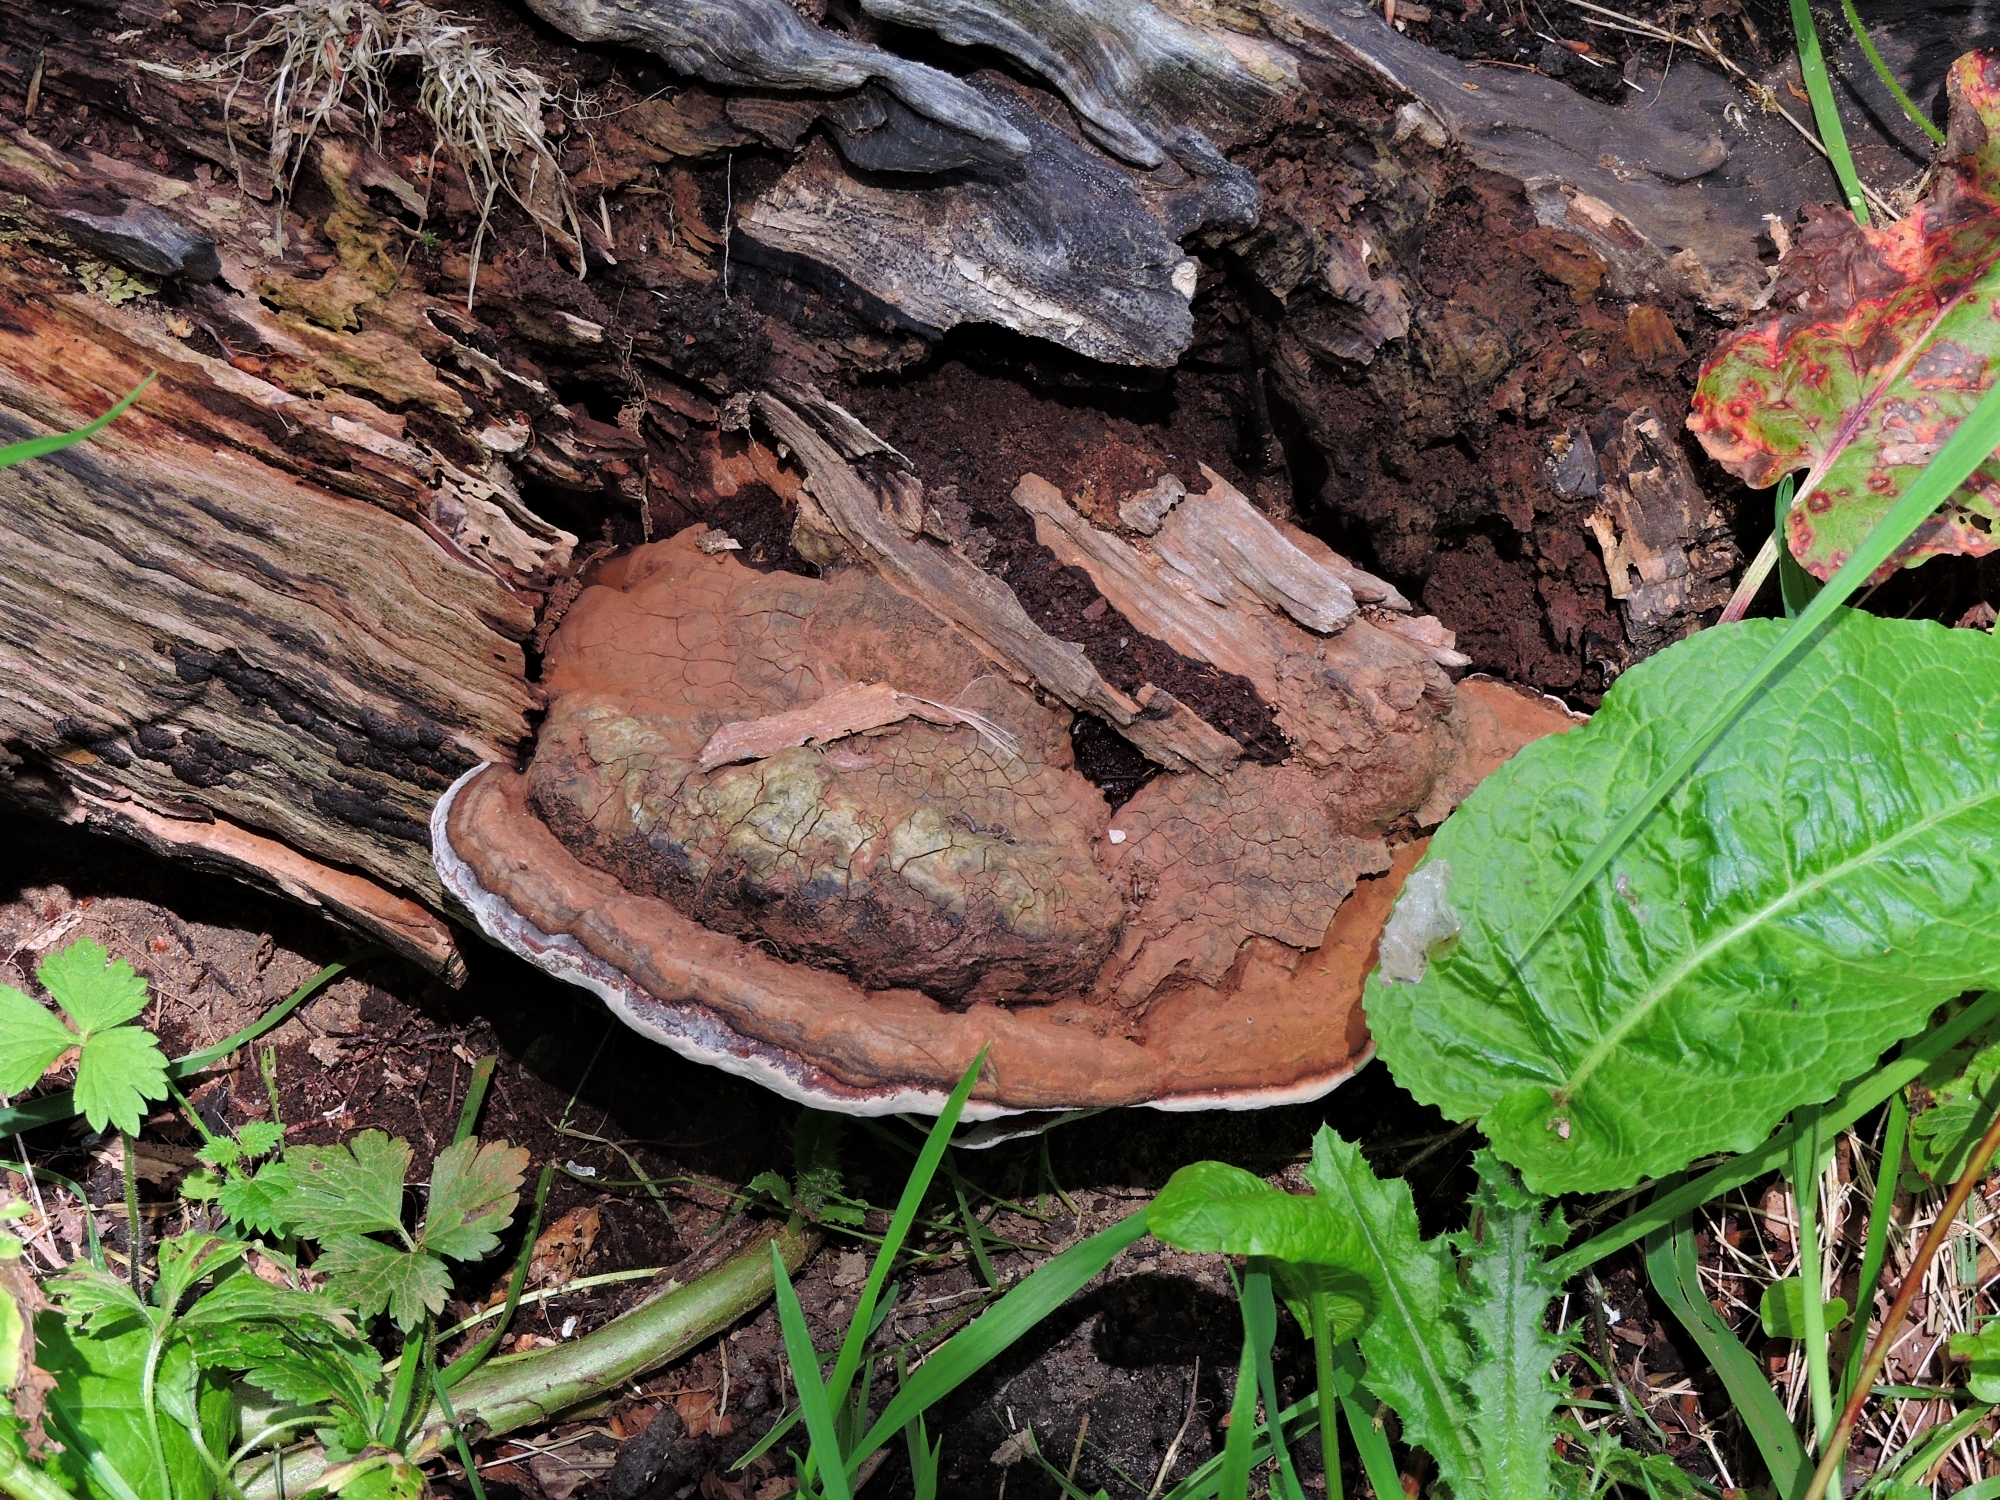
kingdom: Fungi
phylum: Basidiomycota
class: Agaricomycetes
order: Polyporales
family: Polyporaceae
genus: Ganoderma
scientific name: Ganoderma applanatum
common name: Artist's bracket
